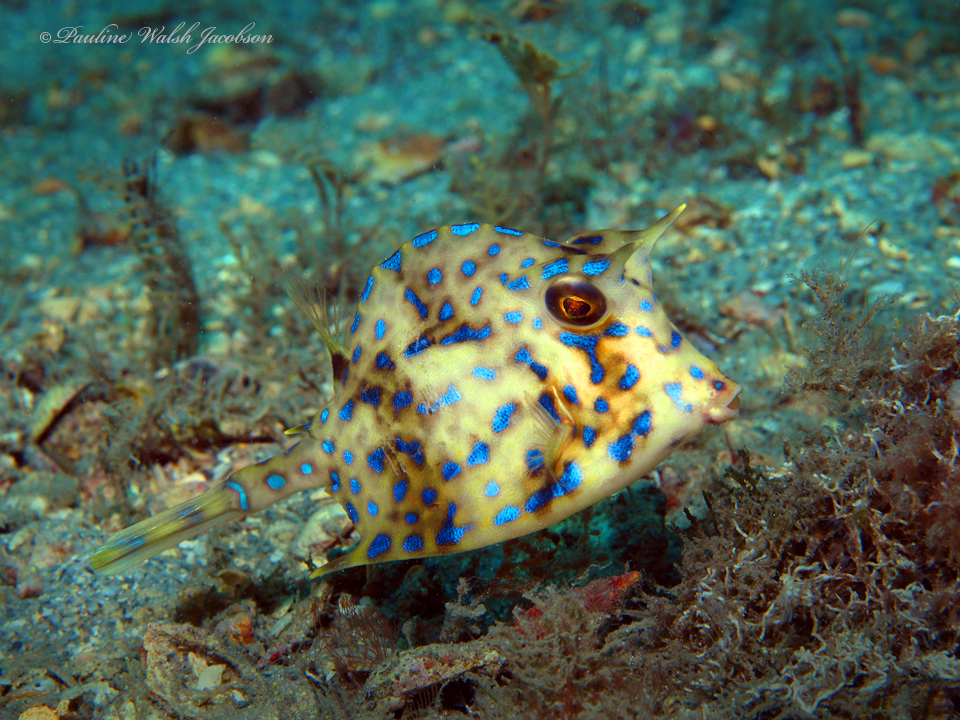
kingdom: Animalia
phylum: Chordata
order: Tetraodontiformes
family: Ostraciidae
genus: Acanthostracion
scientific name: Acanthostracion quadricornis
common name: Scrawled cowfish
